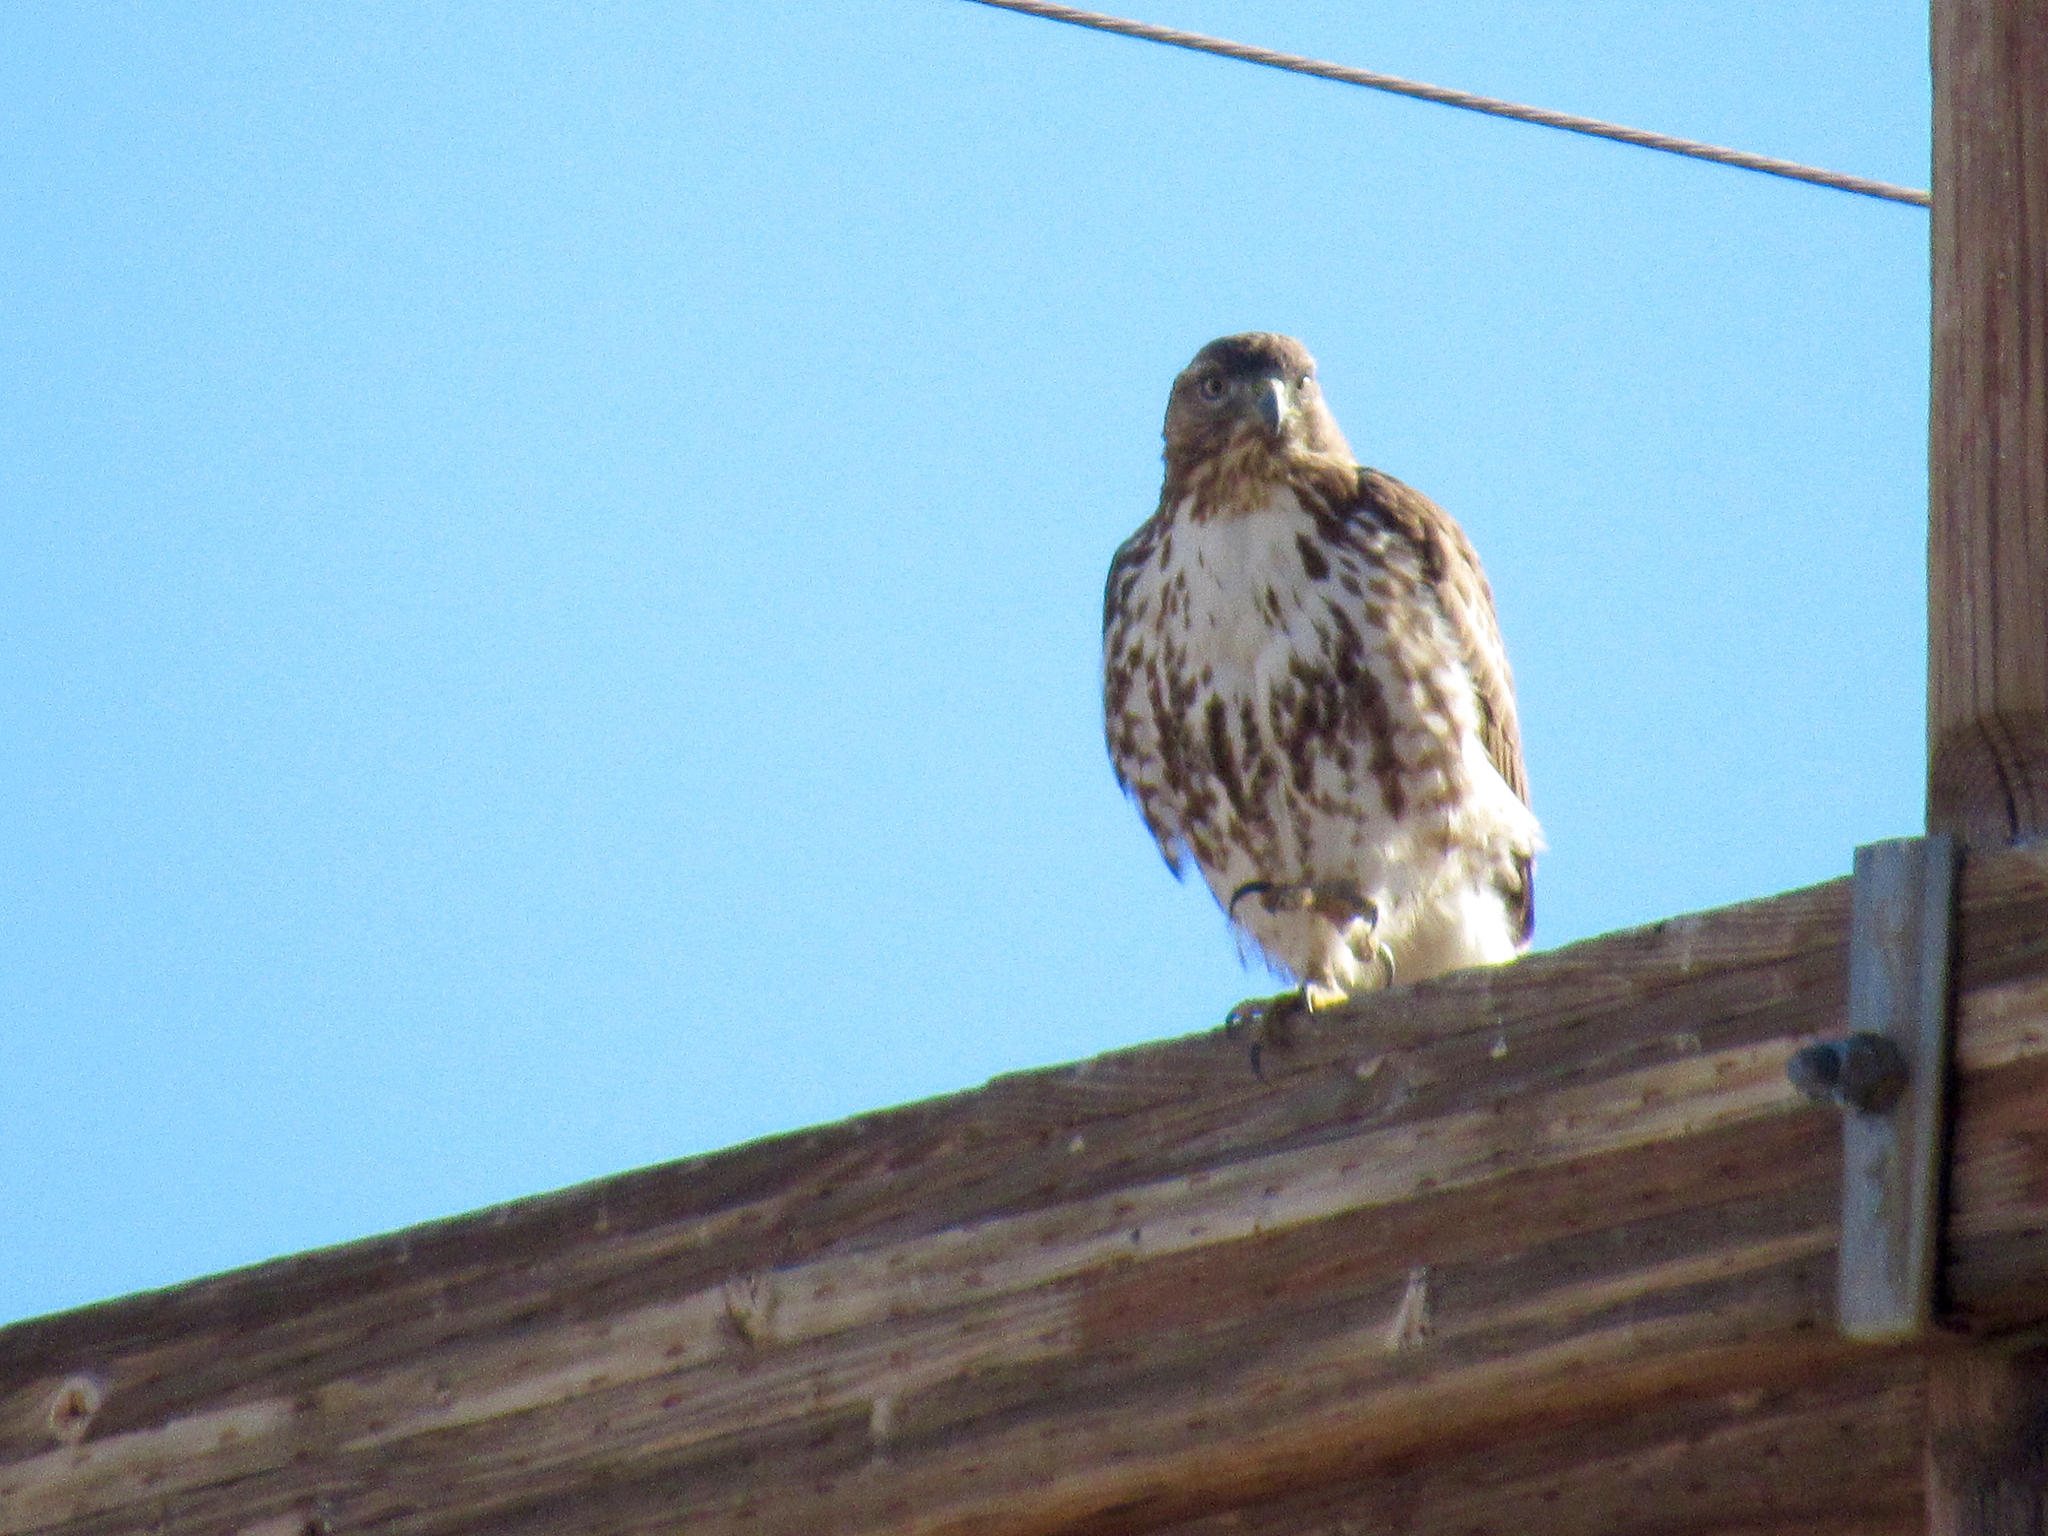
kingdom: Animalia
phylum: Chordata
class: Aves
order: Accipitriformes
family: Accipitridae
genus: Buteo
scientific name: Buteo jamaicensis
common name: Red-tailed hawk
